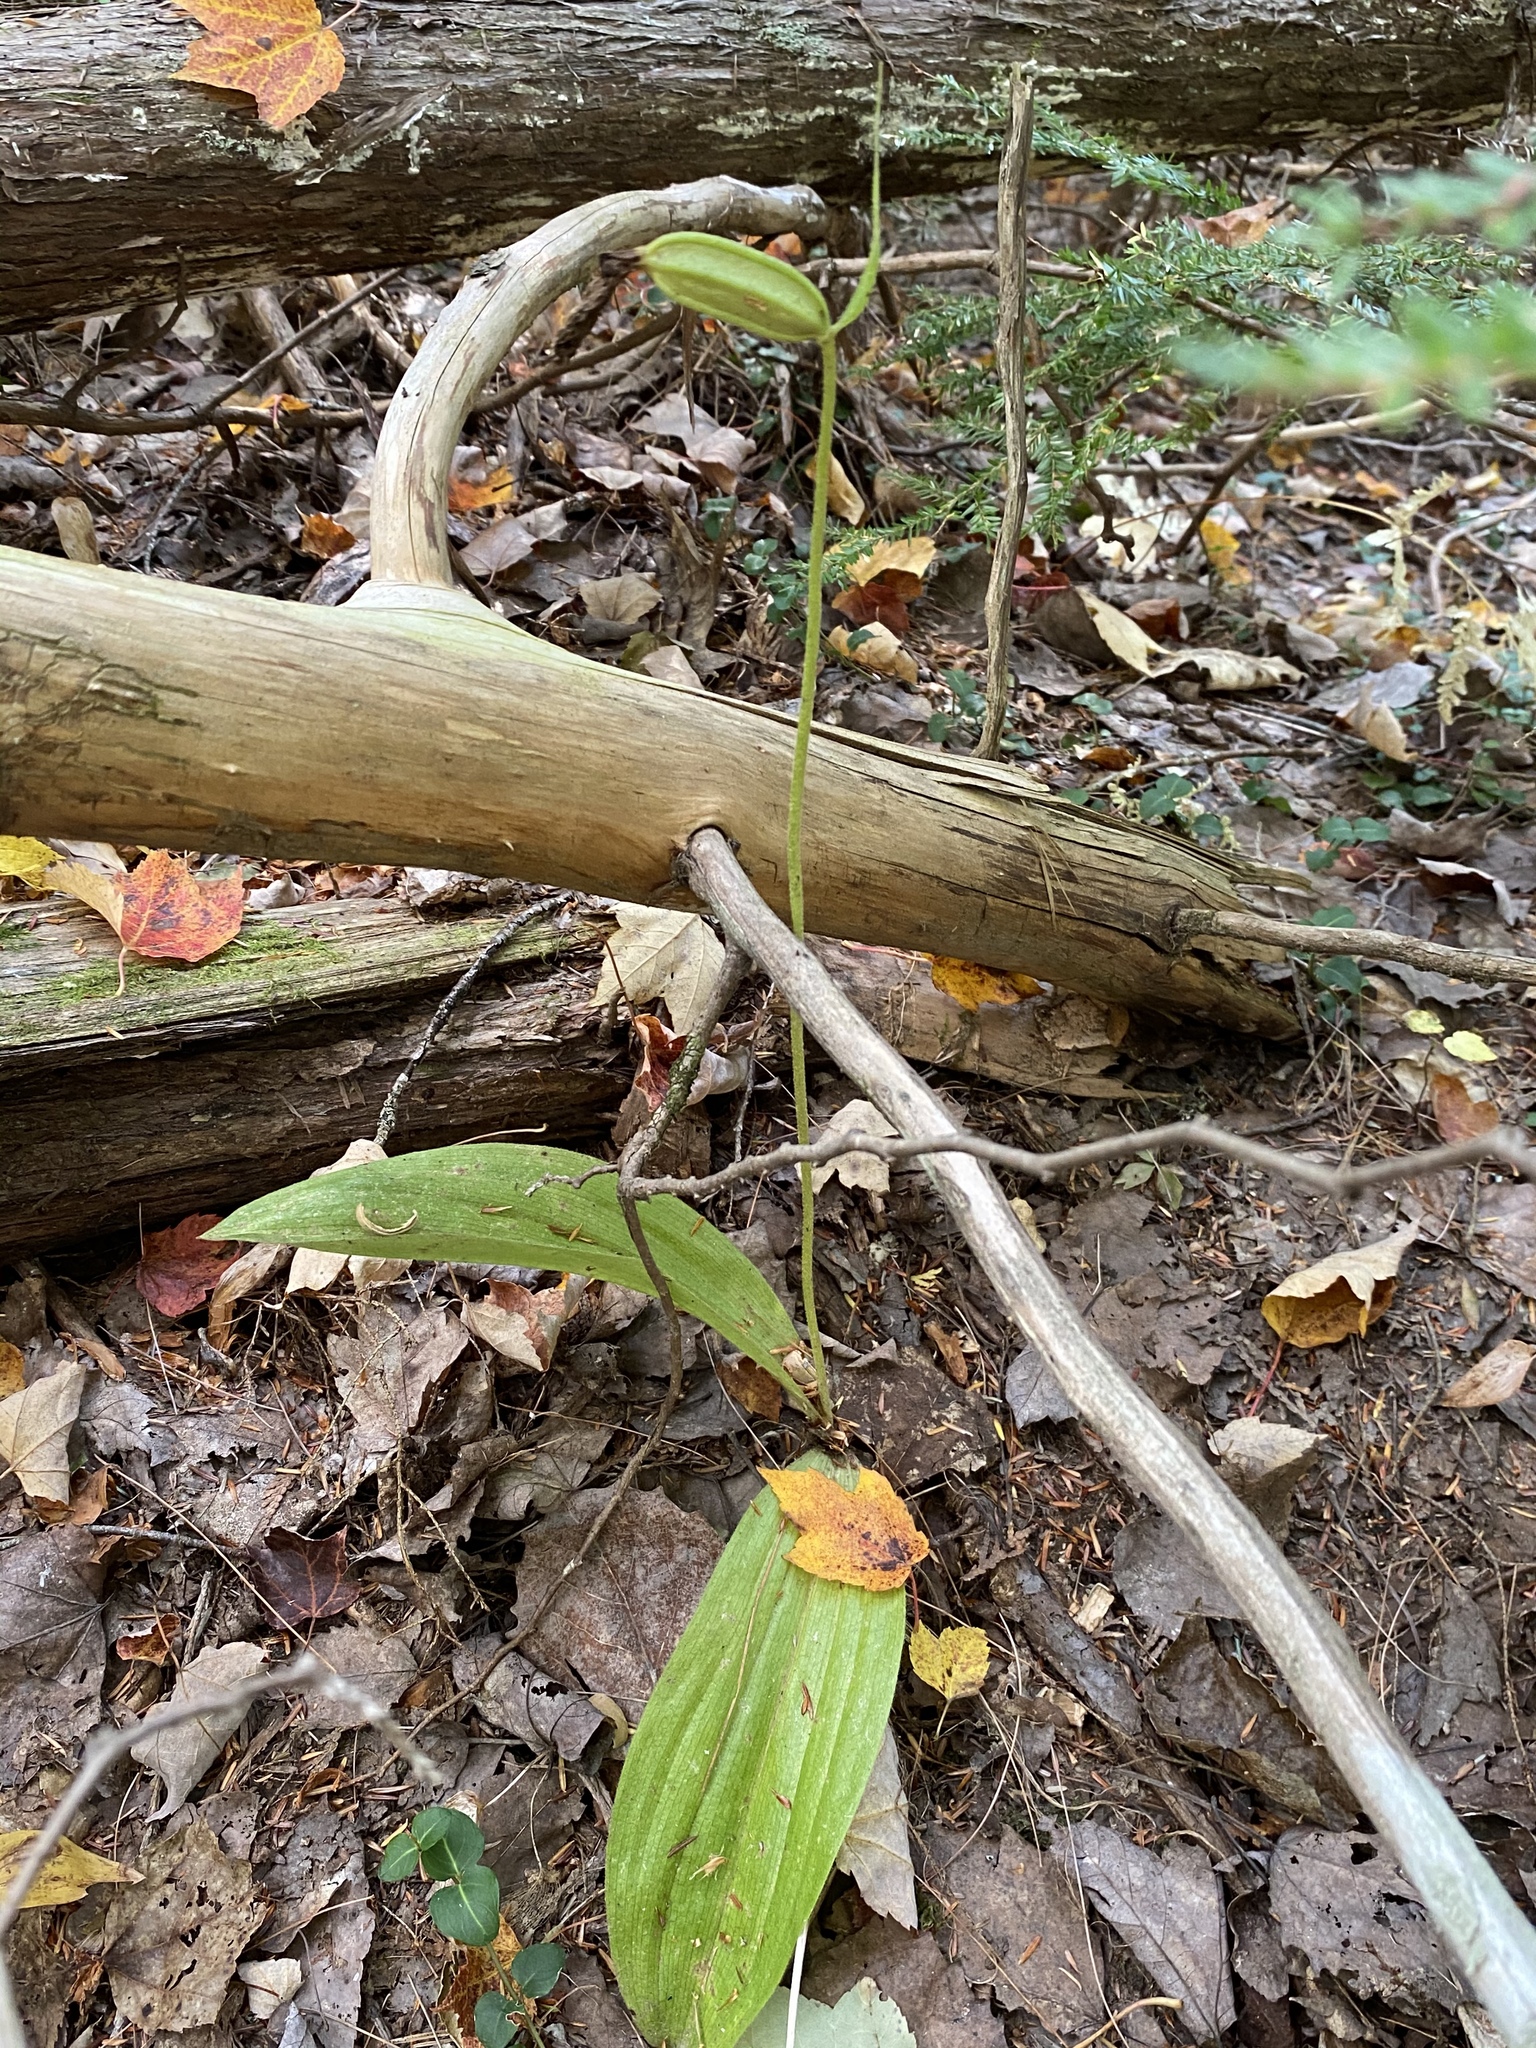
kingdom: Plantae
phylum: Tracheophyta
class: Liliopsida
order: Asparagales
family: Orchidaceae
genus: Cypripedium
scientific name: Cypripedium acaule
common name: Pink lady's-slipper
